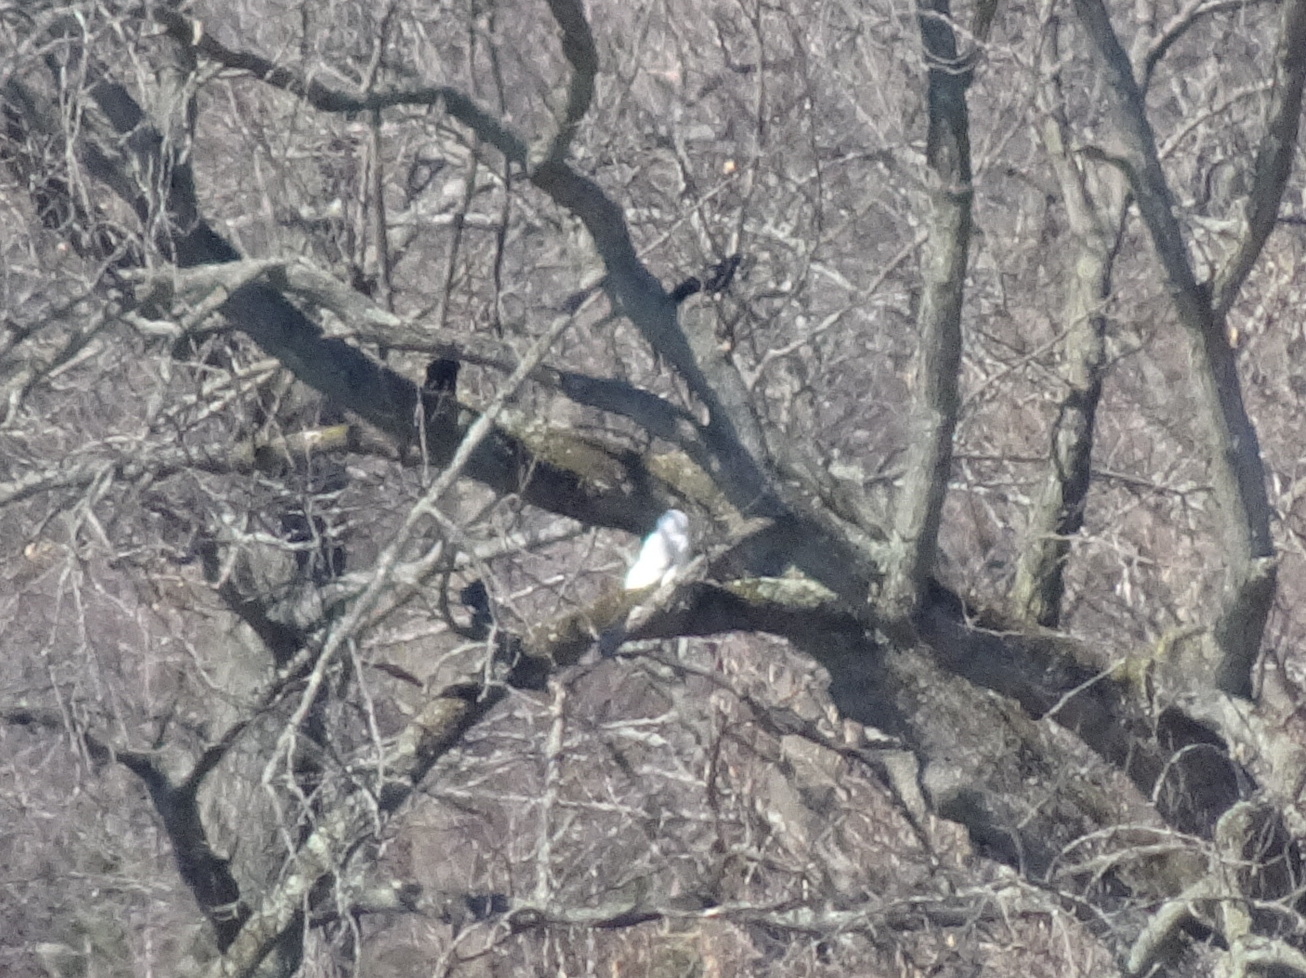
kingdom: Animalia
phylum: Chordata
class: Aves
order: Strigiformes
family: Strigidae
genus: Bubo
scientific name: Bubo scandiacus
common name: Snowy owl
